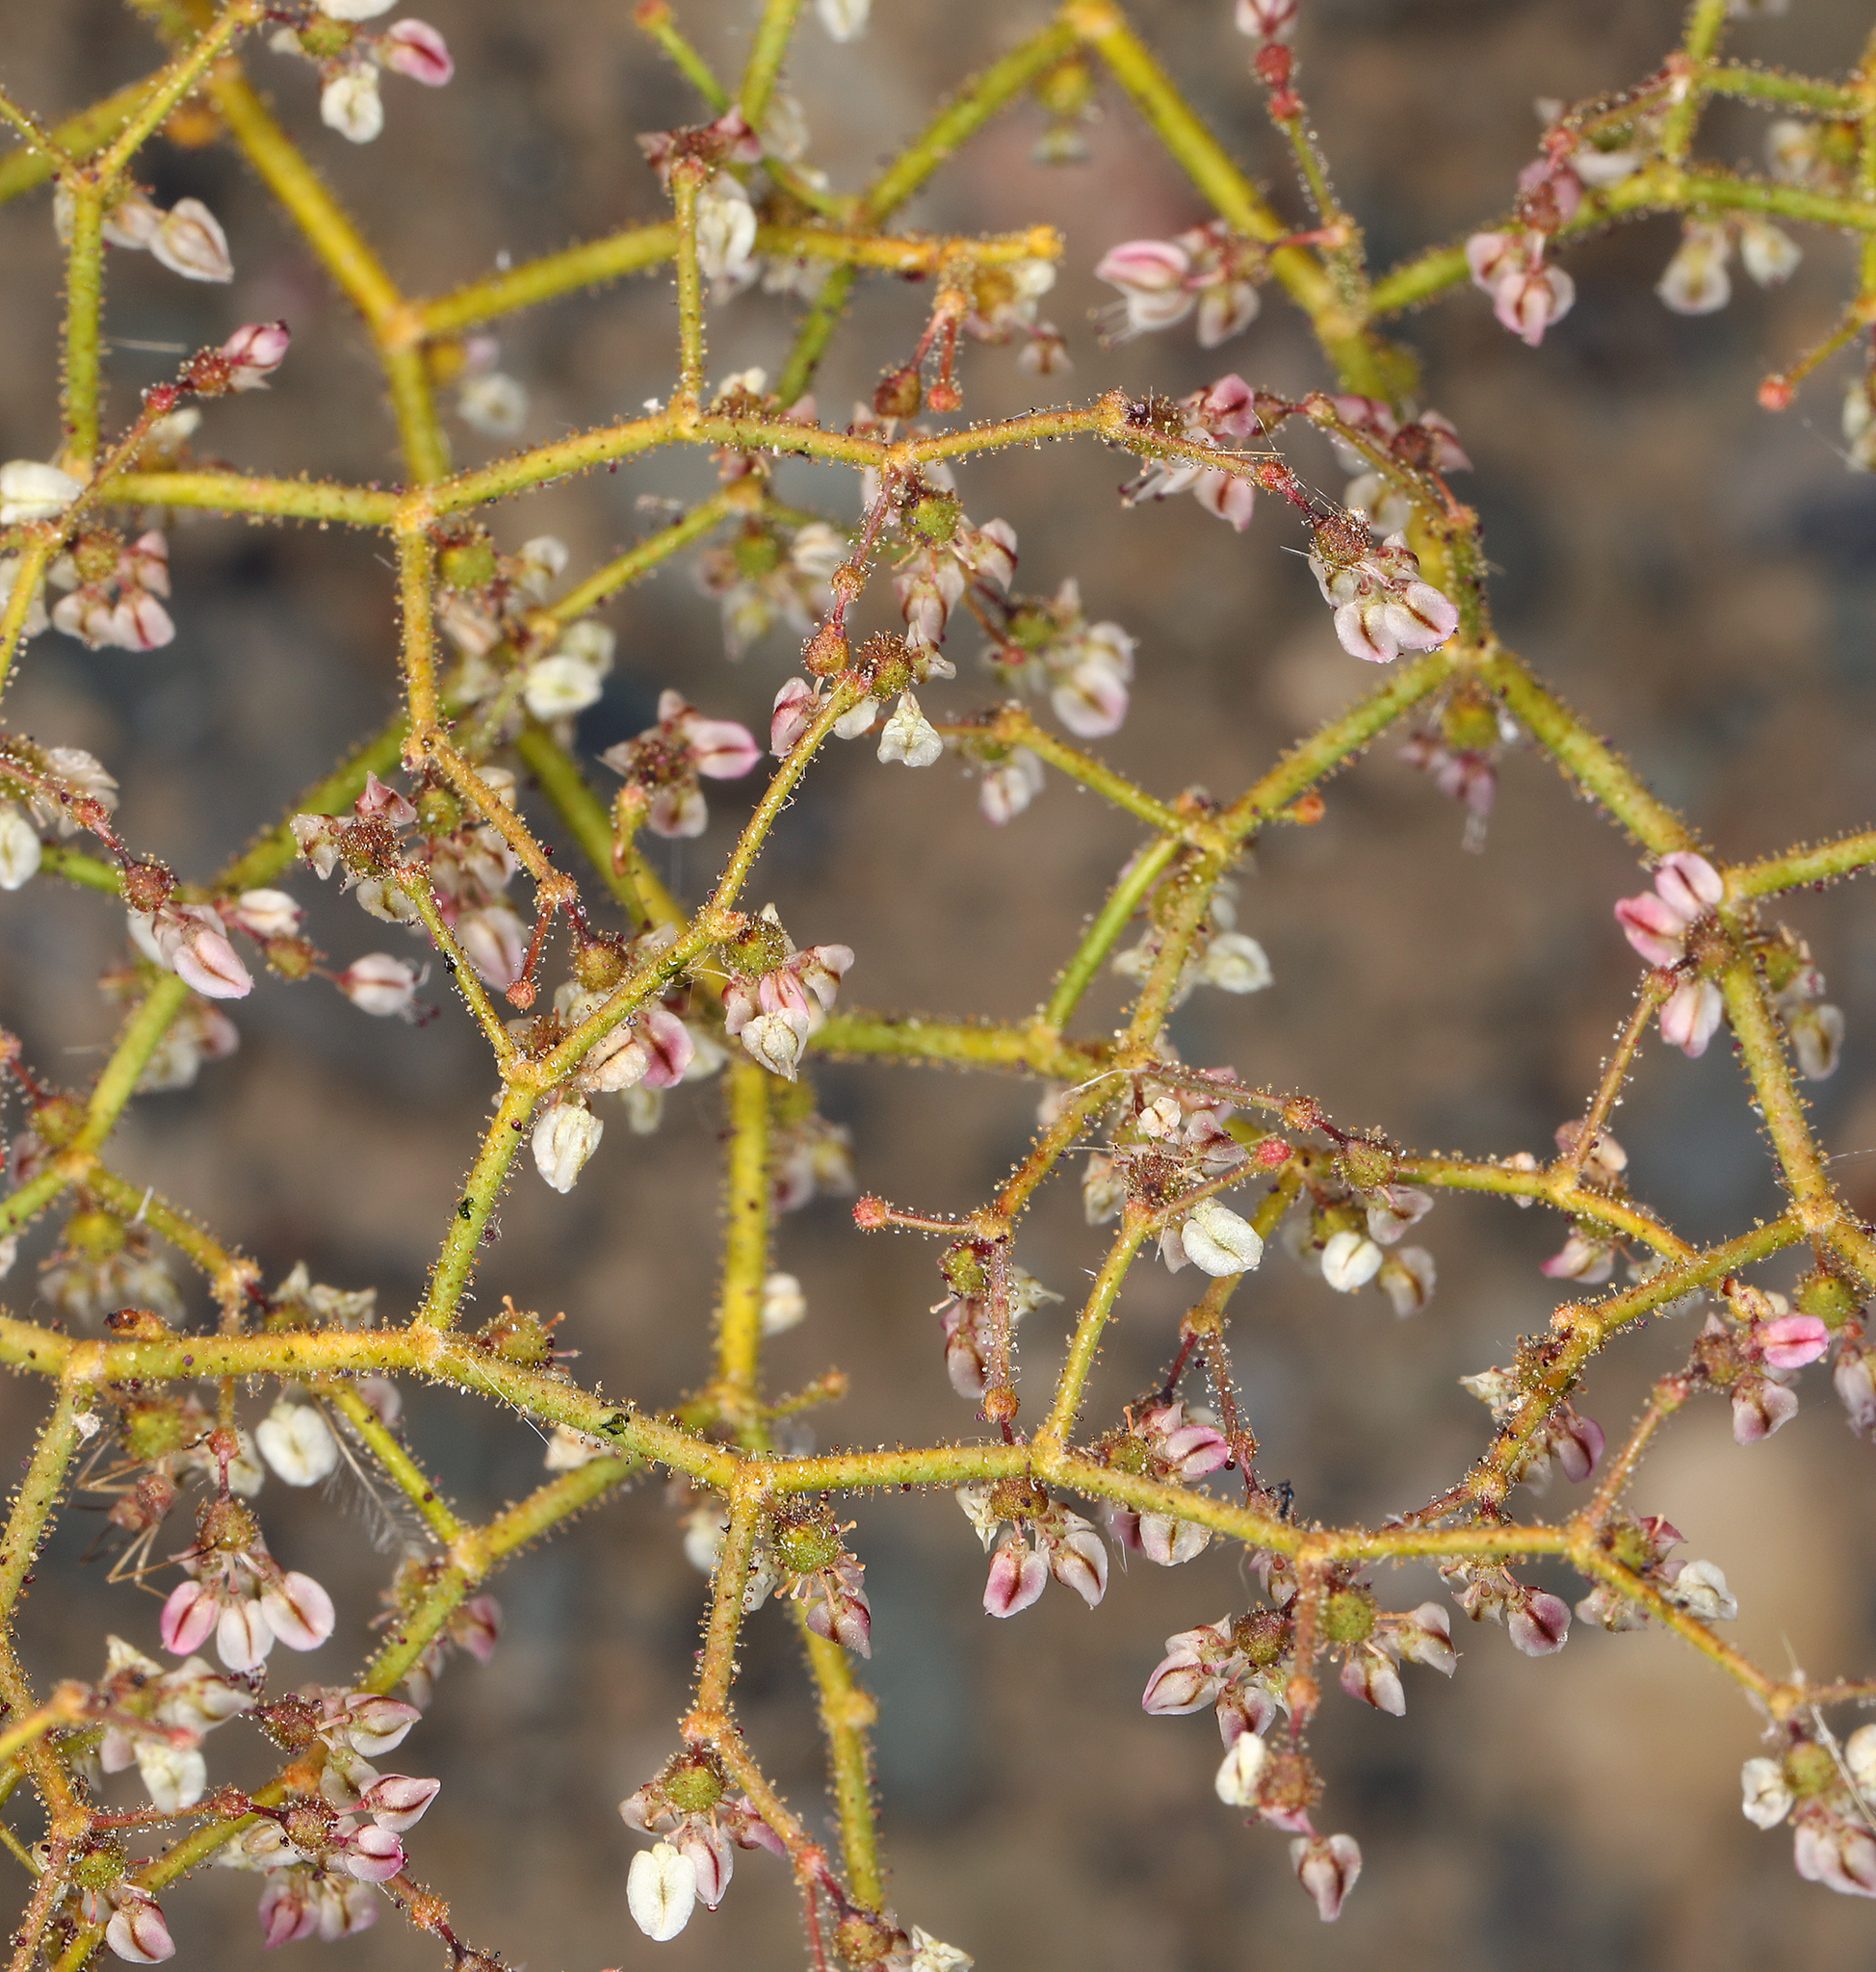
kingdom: Plantae
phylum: Tracheophyta
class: Magnoliopsida
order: Caryophyllales
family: Polygonaceae
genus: Eriogonum
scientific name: Eriogonum brachypodum
